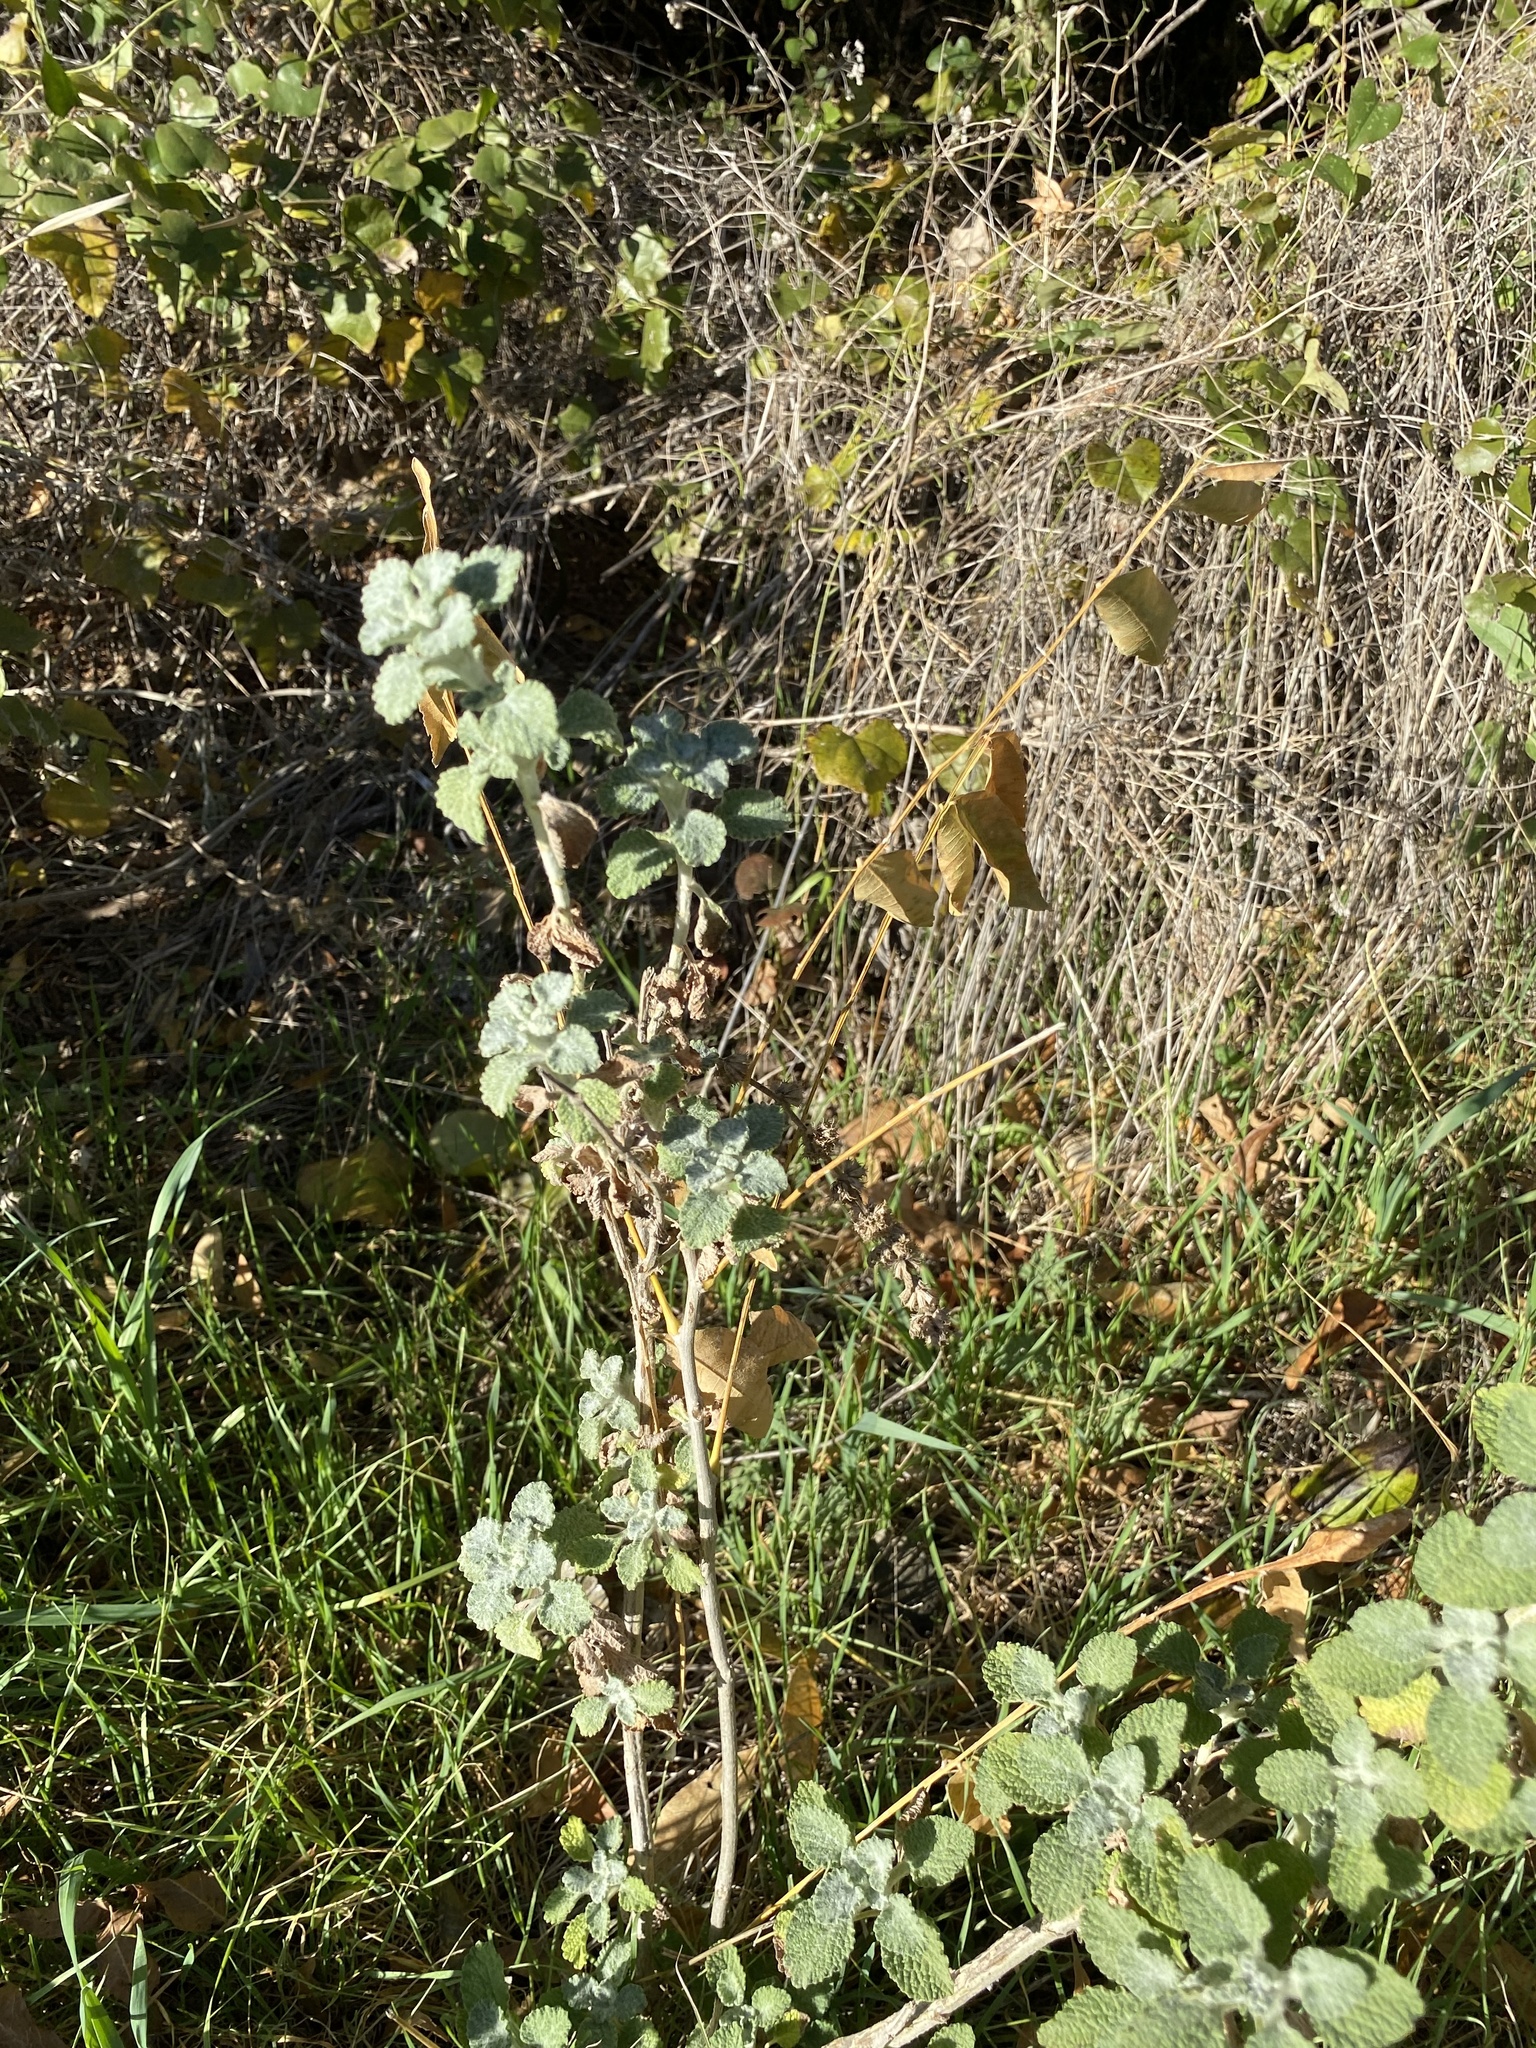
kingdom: Plantae
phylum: Tracheophyta
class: Magnoliopsida
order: Lamiales
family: Lamiaceae
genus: Marrubium
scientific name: Marrubium vulgare
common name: Horehound
